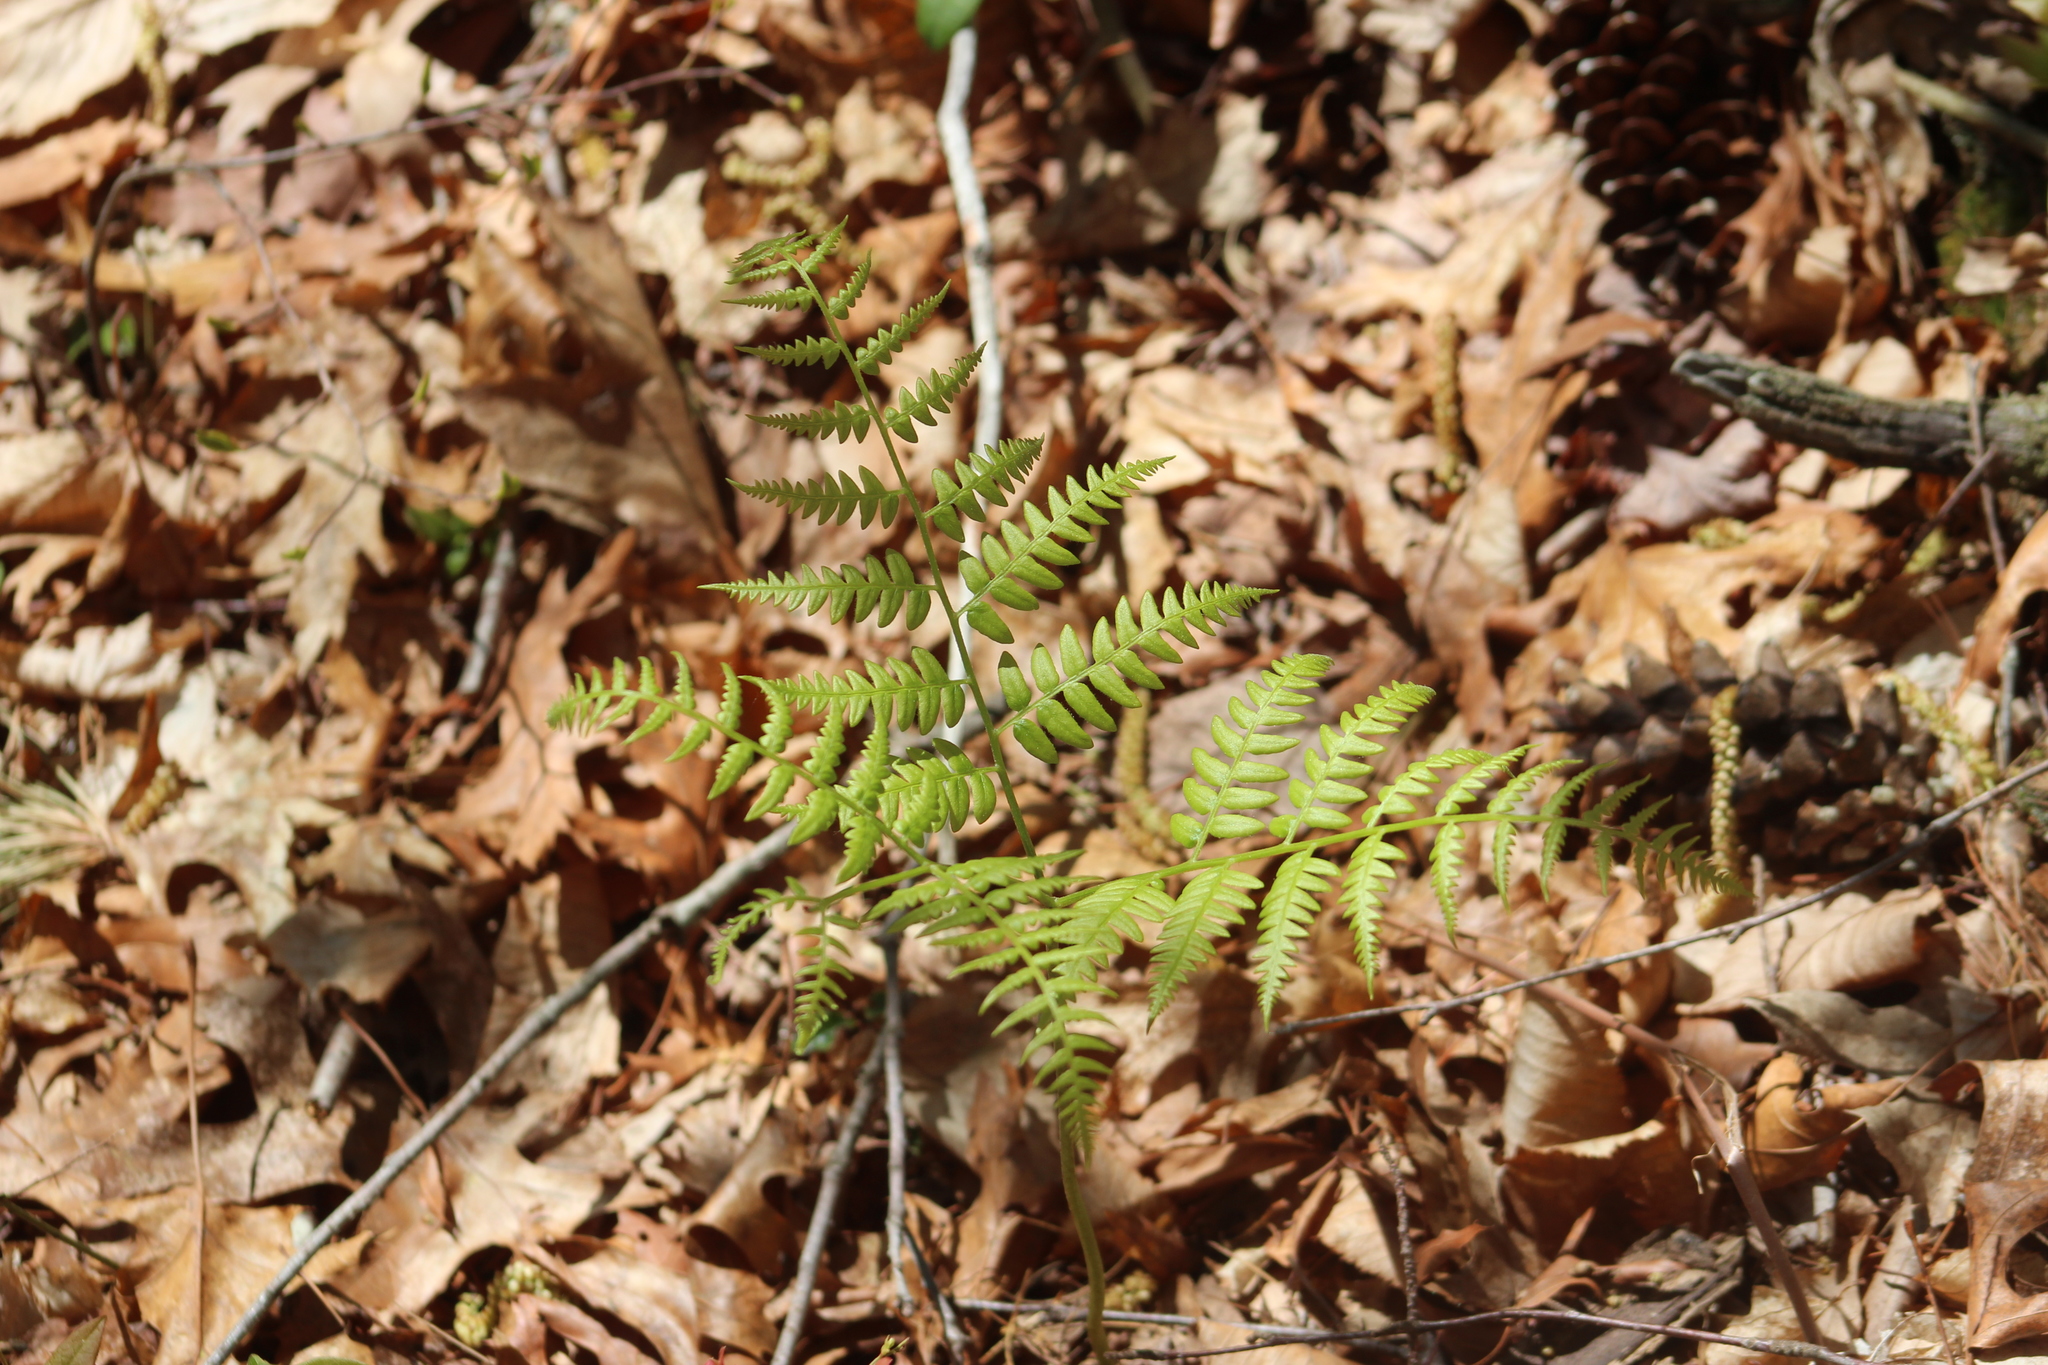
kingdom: Plantae
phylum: Tracheophyta
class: Polypodiopsida
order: Polypodiales
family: Dennstaedtiaceae
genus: Pteridium
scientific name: Pteridium aquilinum
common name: Bracken
